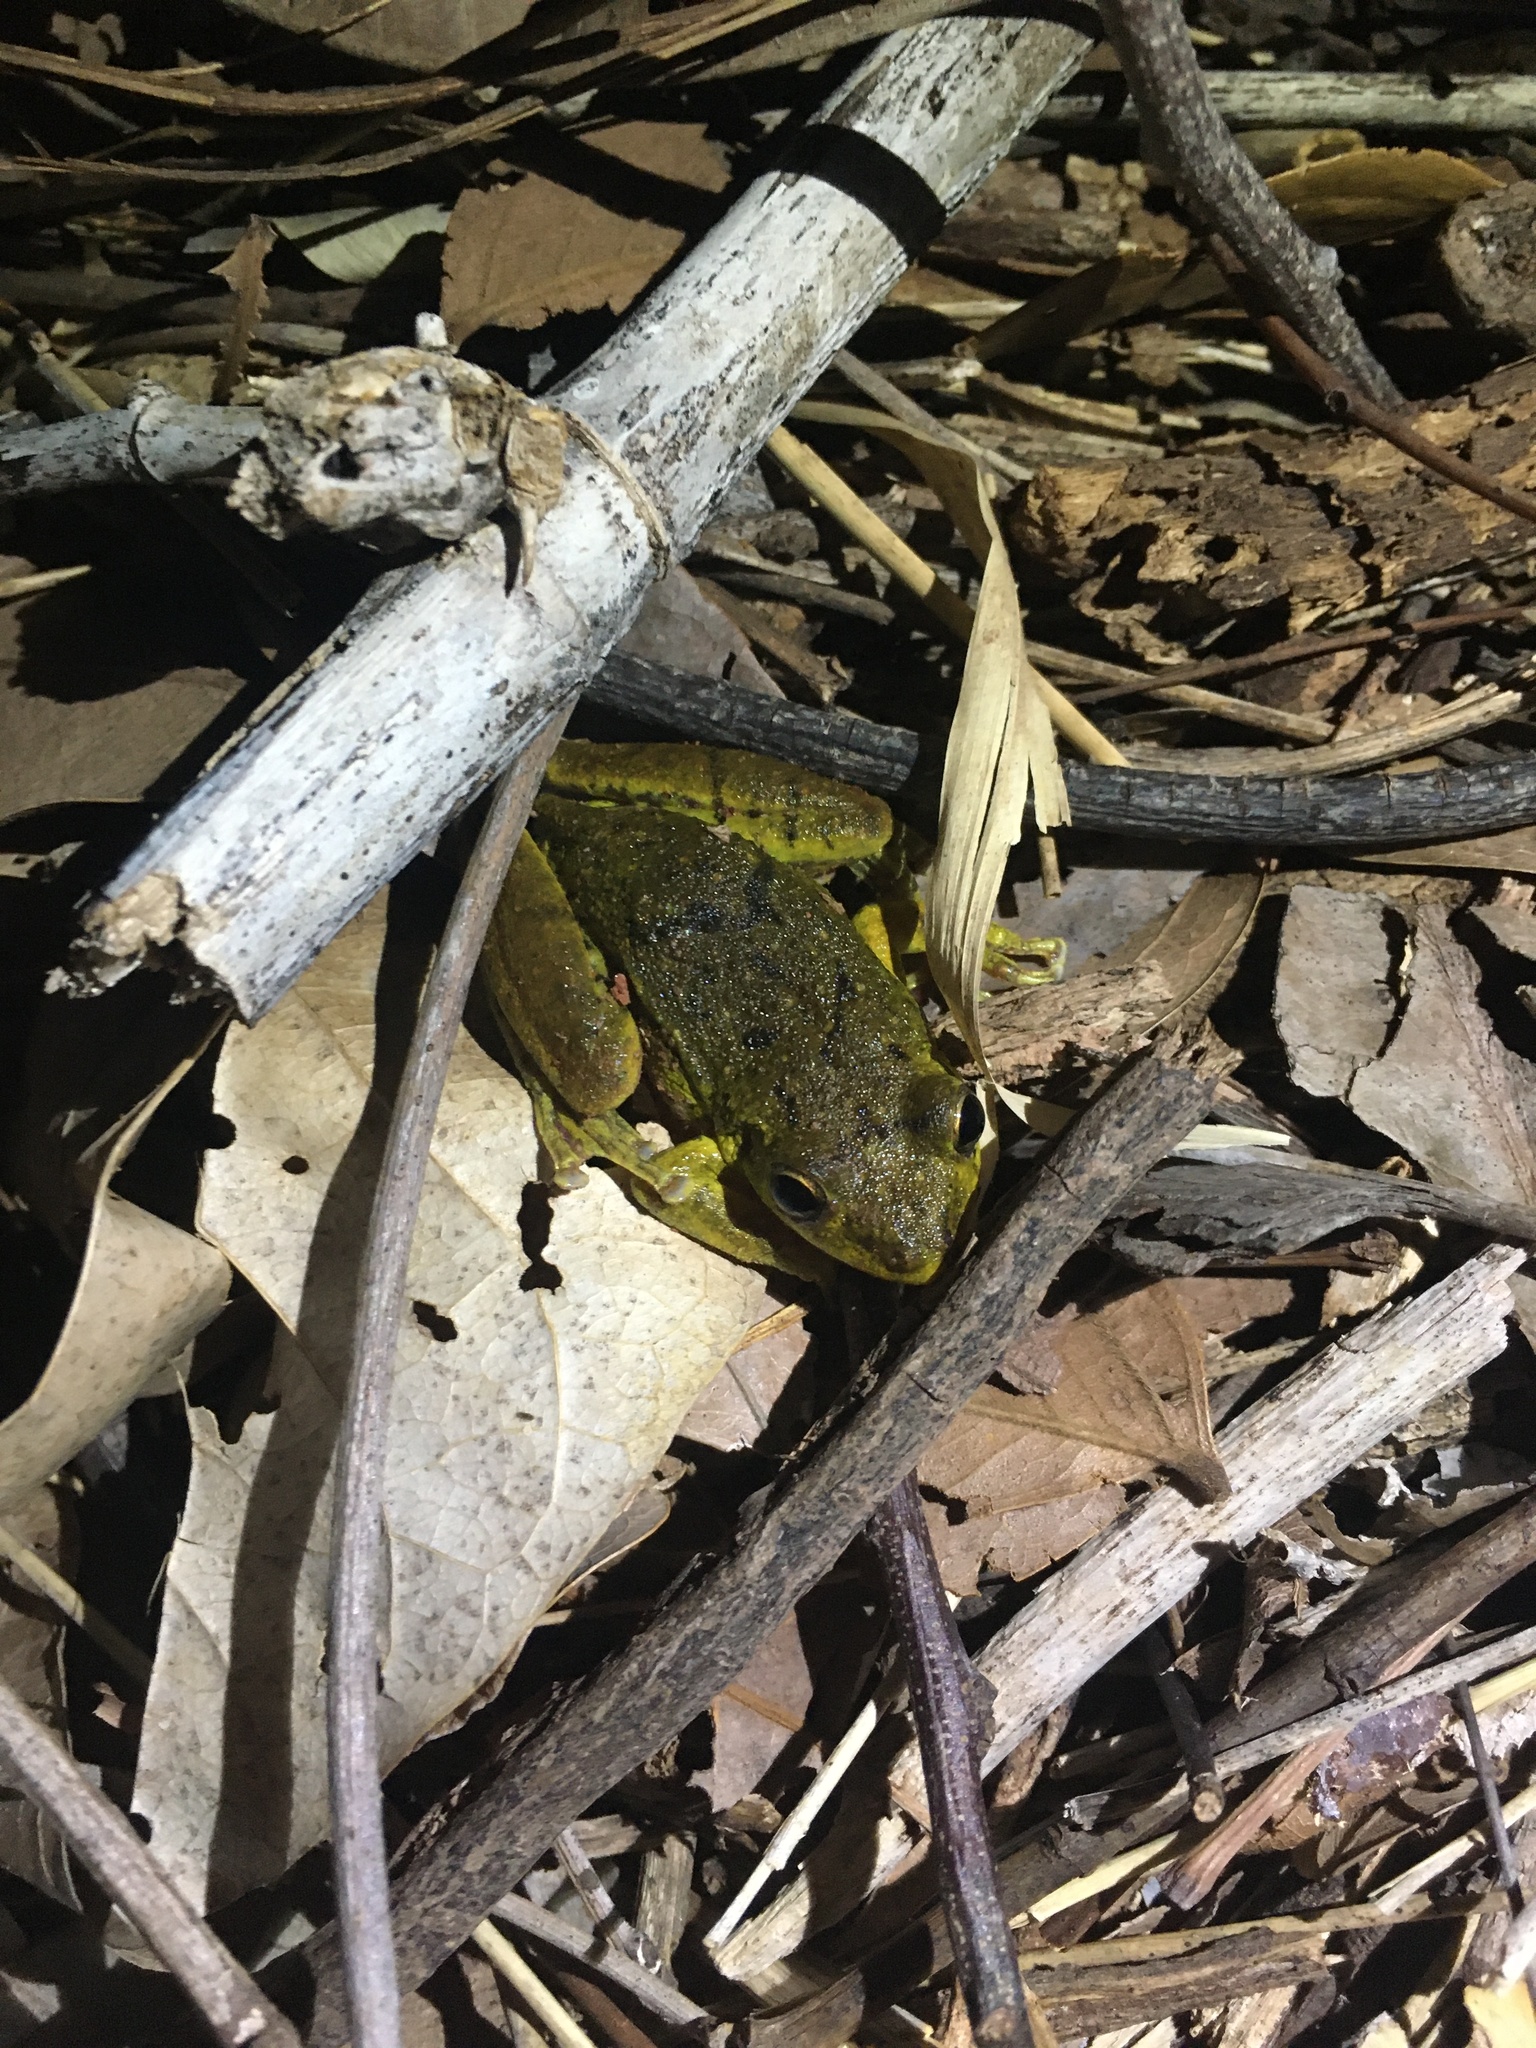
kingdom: Animalia
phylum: Chordata
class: Amphibia
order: Anura
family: Hylidae
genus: Scinax
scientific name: Scinax fuscovarius
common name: Fuscous-blotched treefrog
